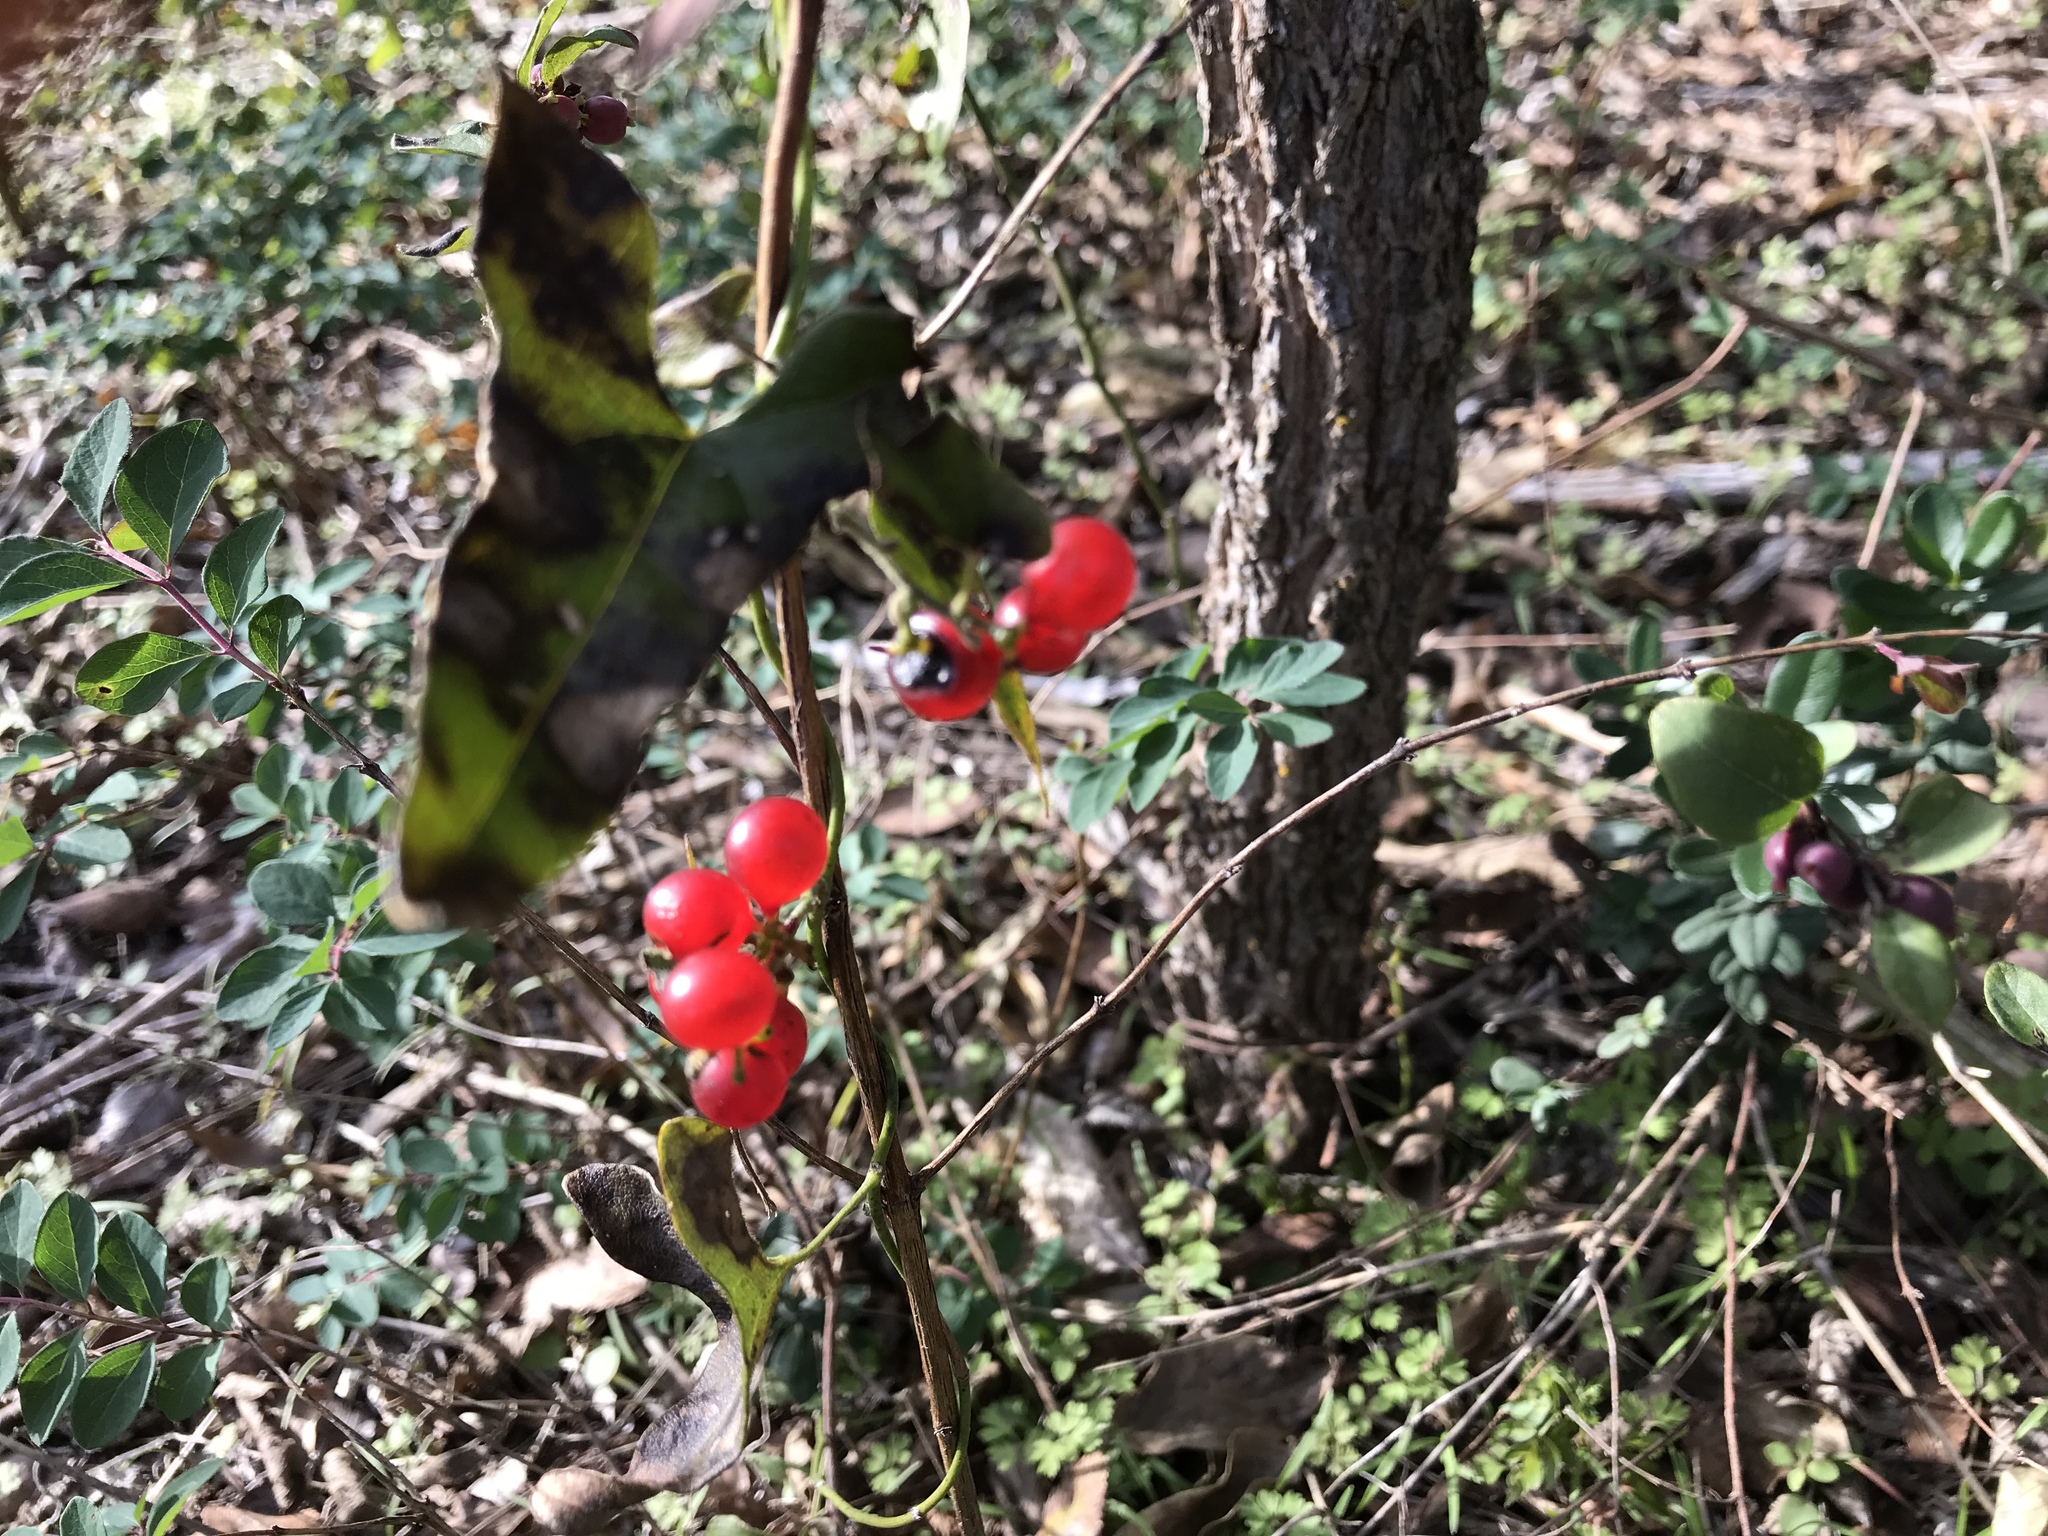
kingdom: Plantae
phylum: Tracheophyta
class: Magnoliopsida
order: Ranunculales
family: Menispermaceae
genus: Cocculus
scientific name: Cocculus carolinus
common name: Carolina moonseed
